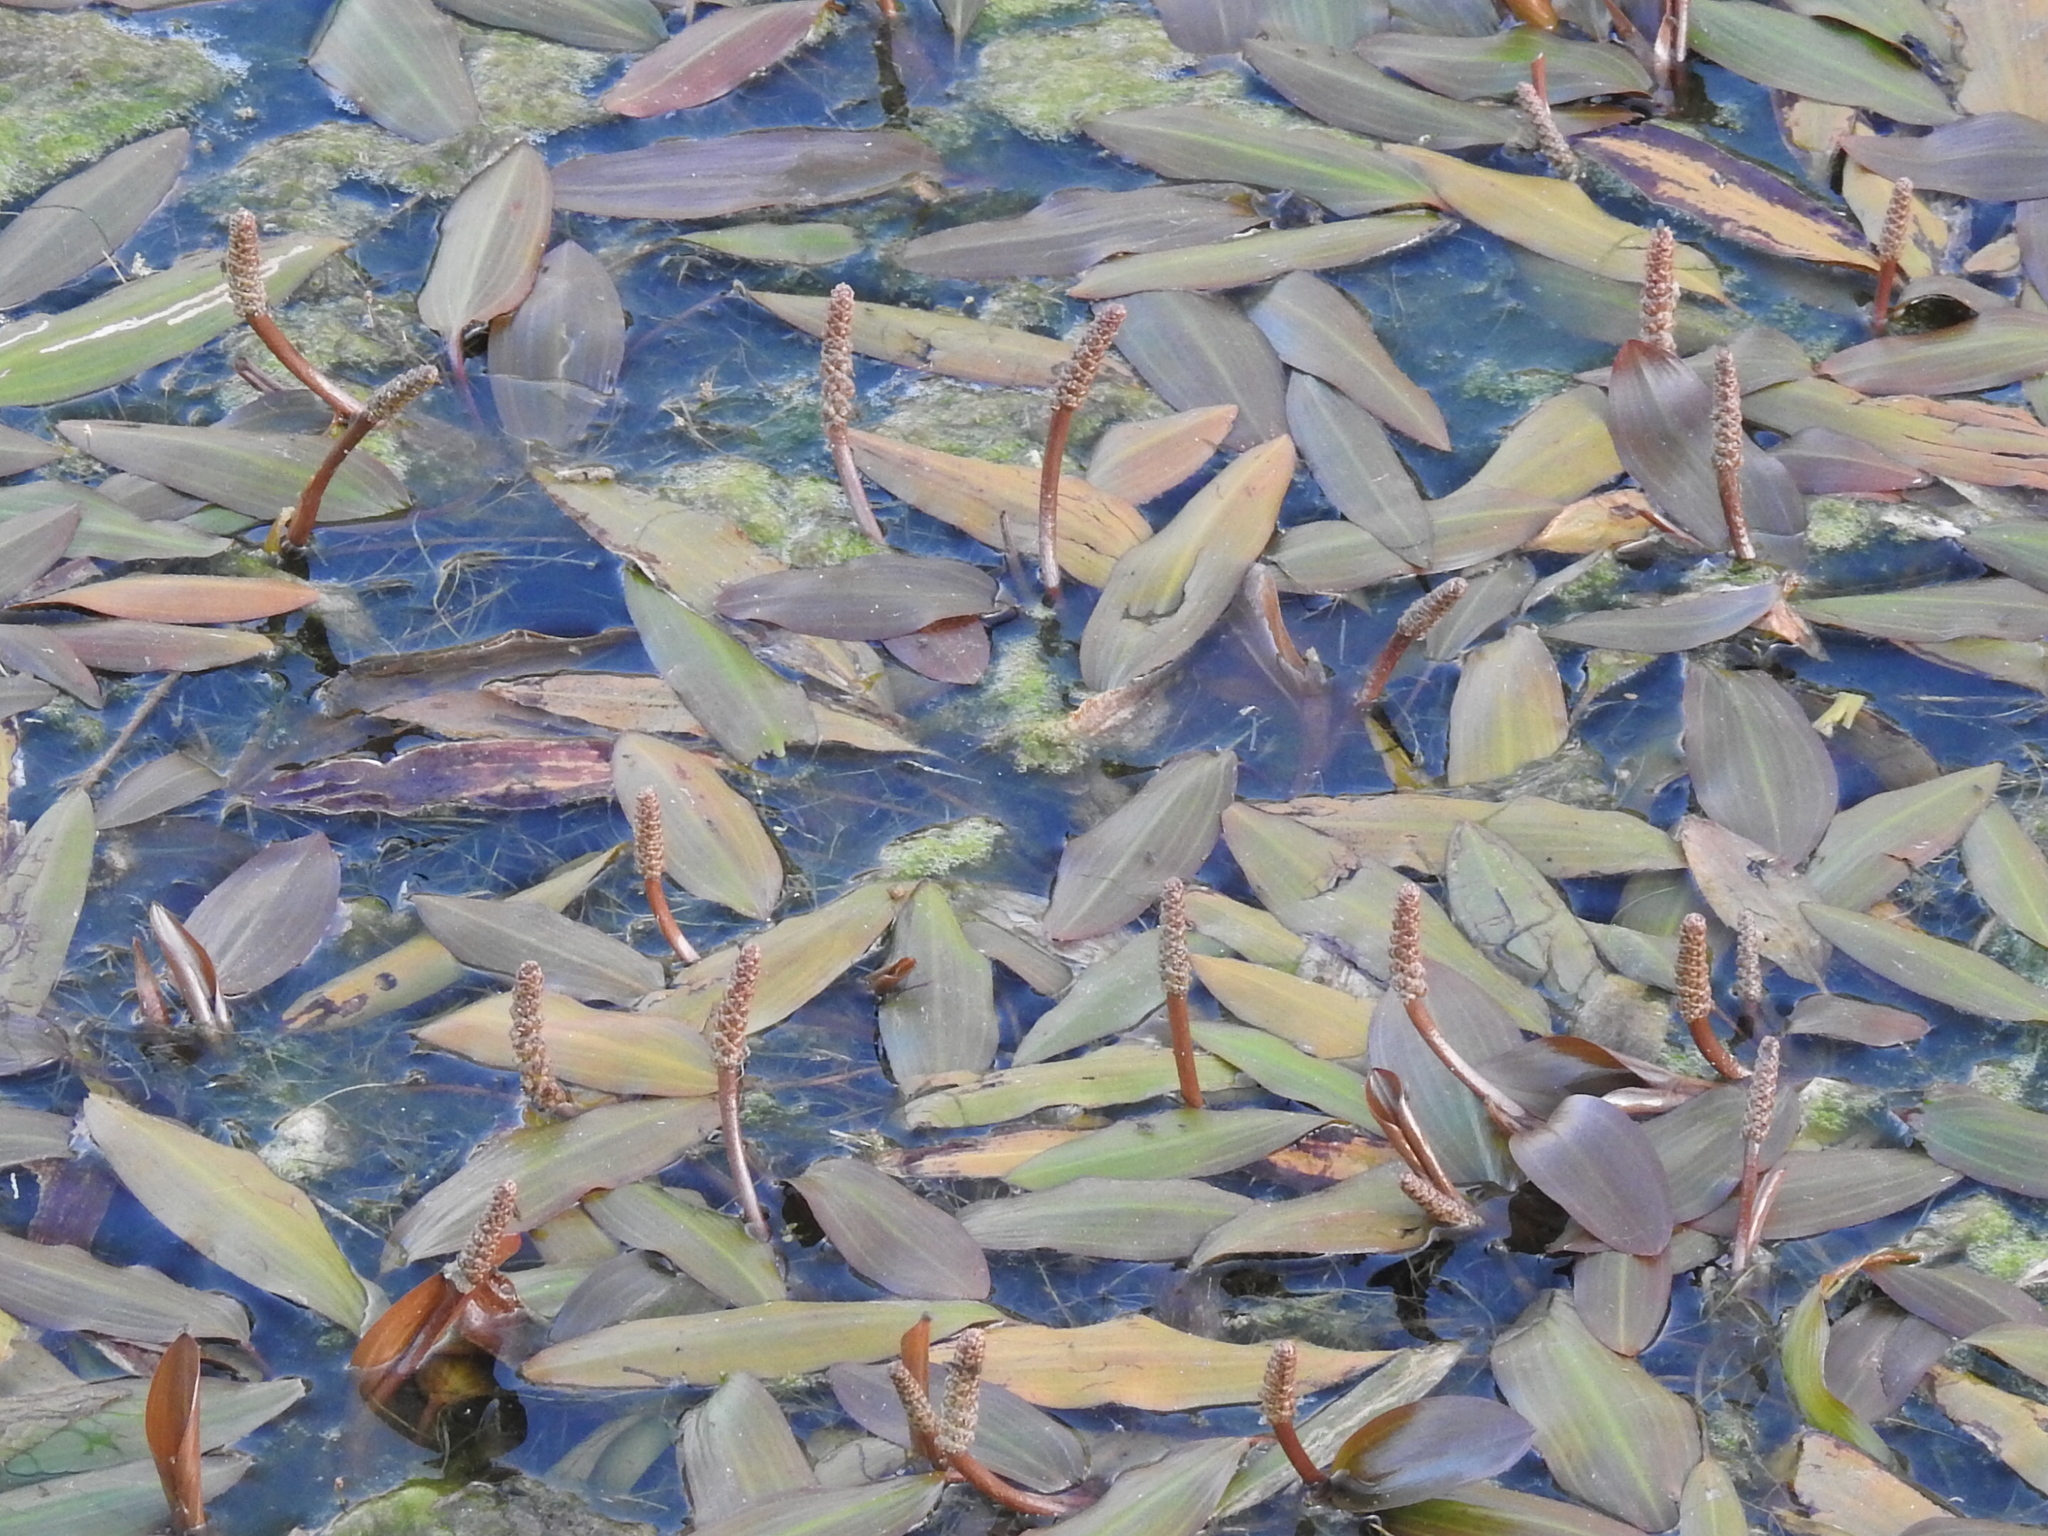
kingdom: Plantae
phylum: Tracheophyta
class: Liliopsida
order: Alismatales
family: Potamogetonaceae
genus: Potamogeton
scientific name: Potamogeton nodosus
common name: Loddon pondweed
